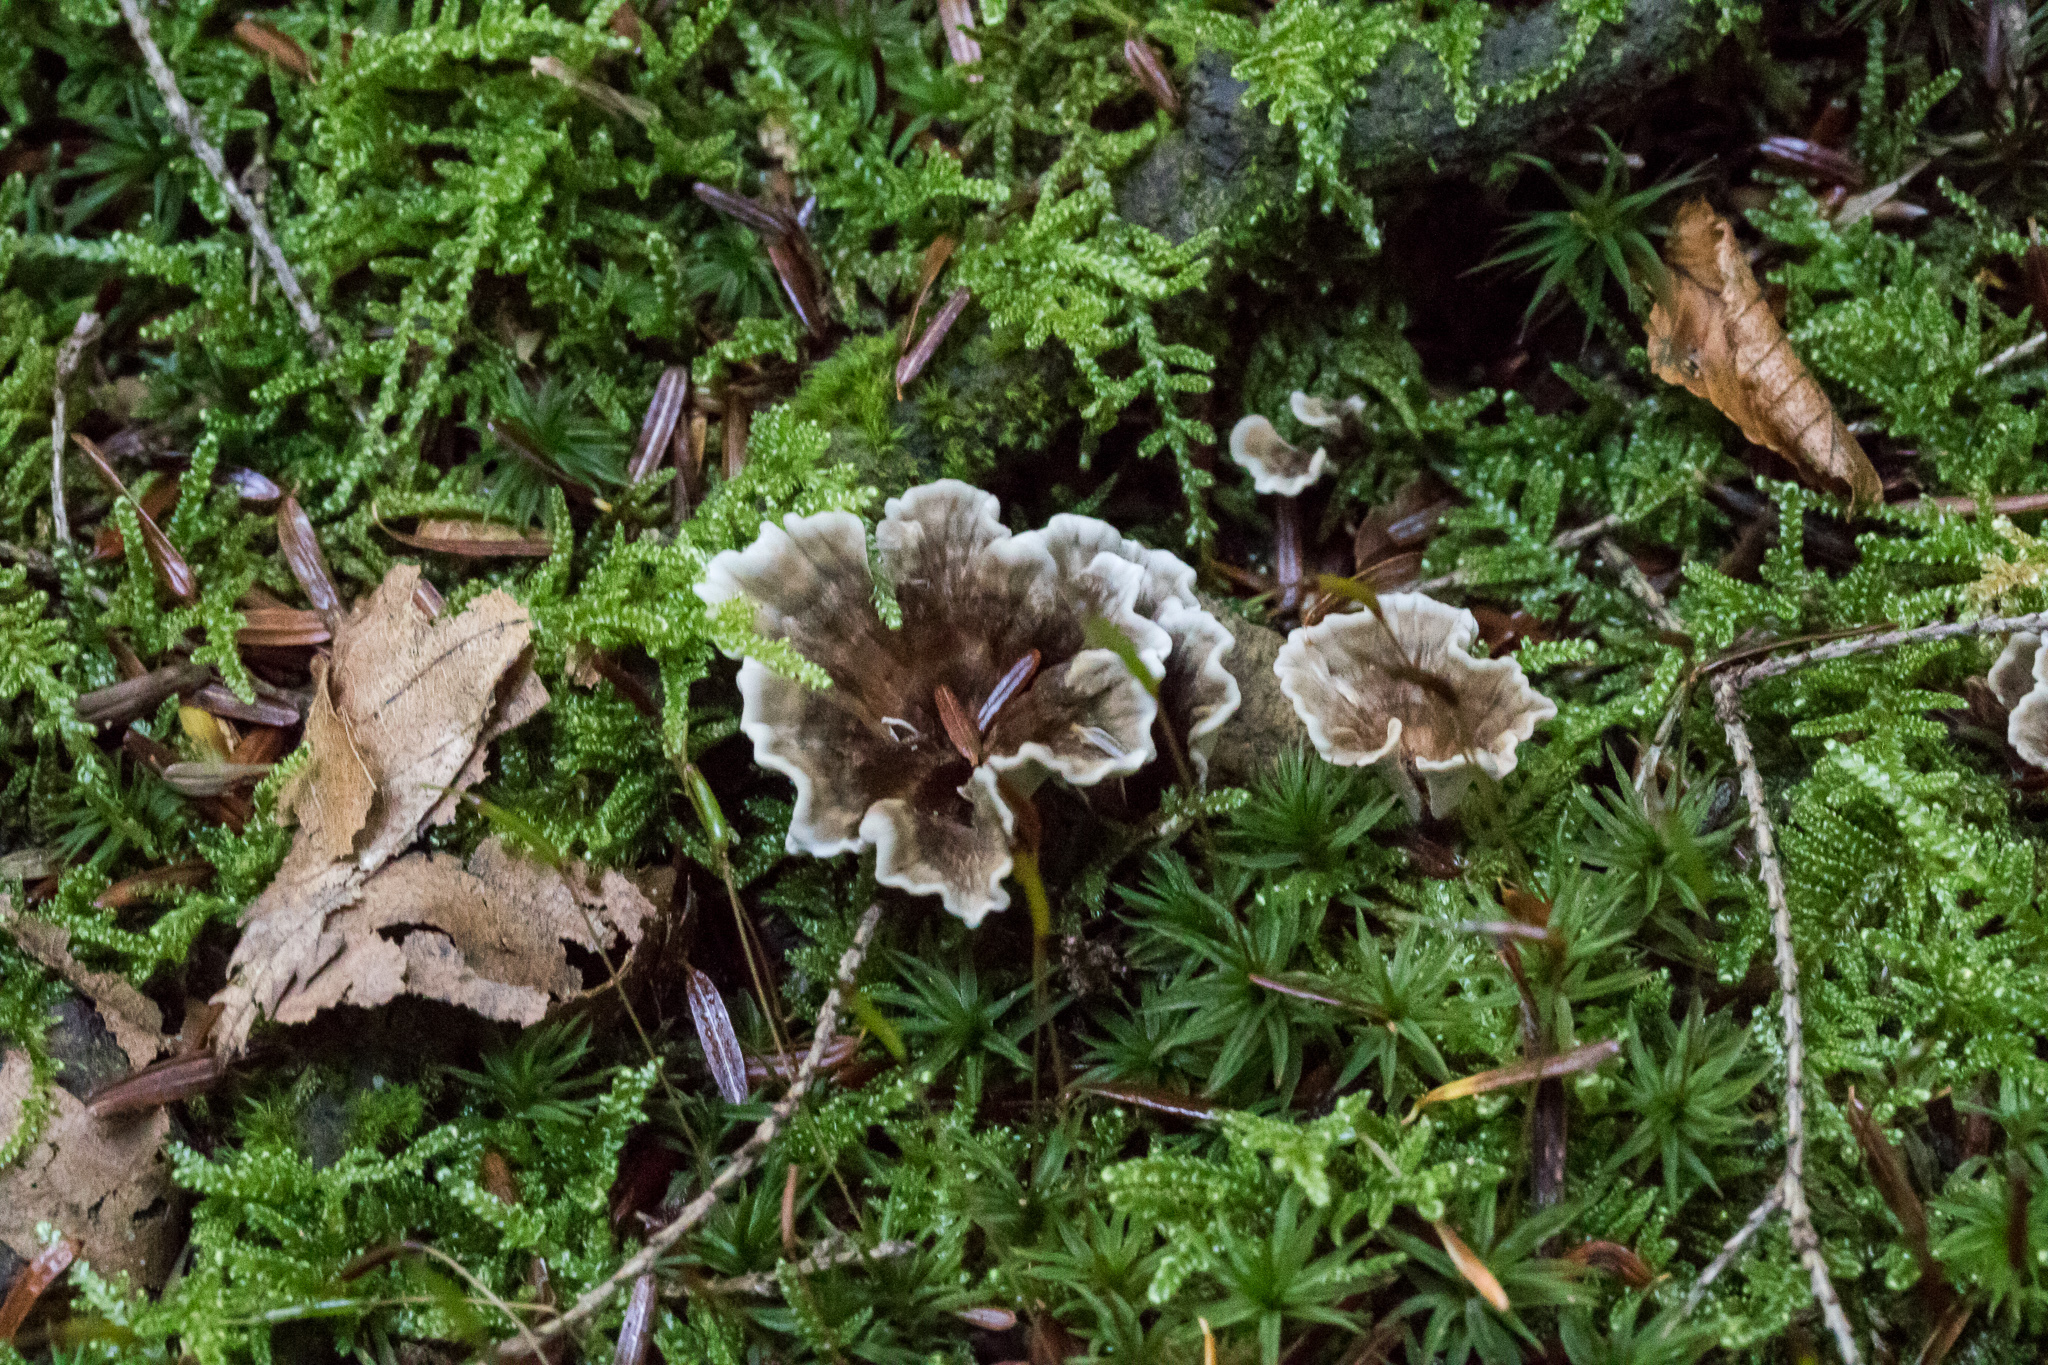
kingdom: Fungi
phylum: Basidiomycota
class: Agaricomycetes
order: Thelephorales
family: Thelephoraceae
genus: Thelephora
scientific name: Thelephora terrestris
